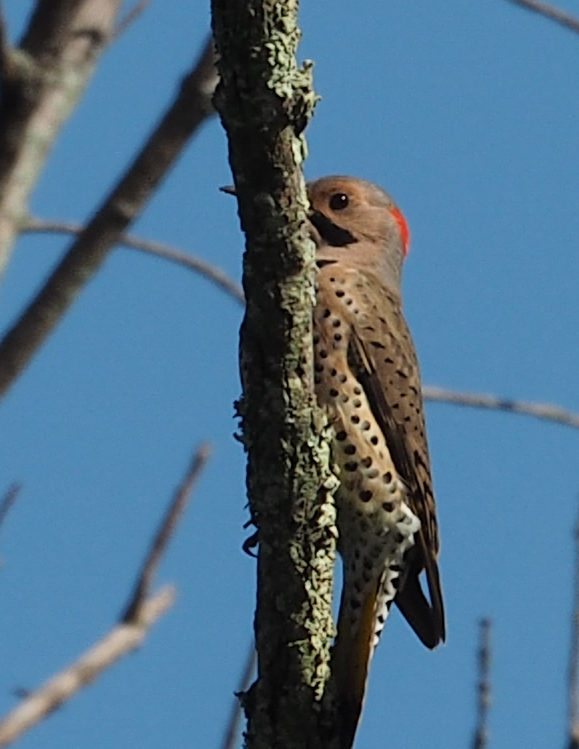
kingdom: Animalia
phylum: Chordata
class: Aves
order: Piciformes
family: Picidae
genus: Colaptes
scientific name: Colaptes auratus
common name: Northern flicker
